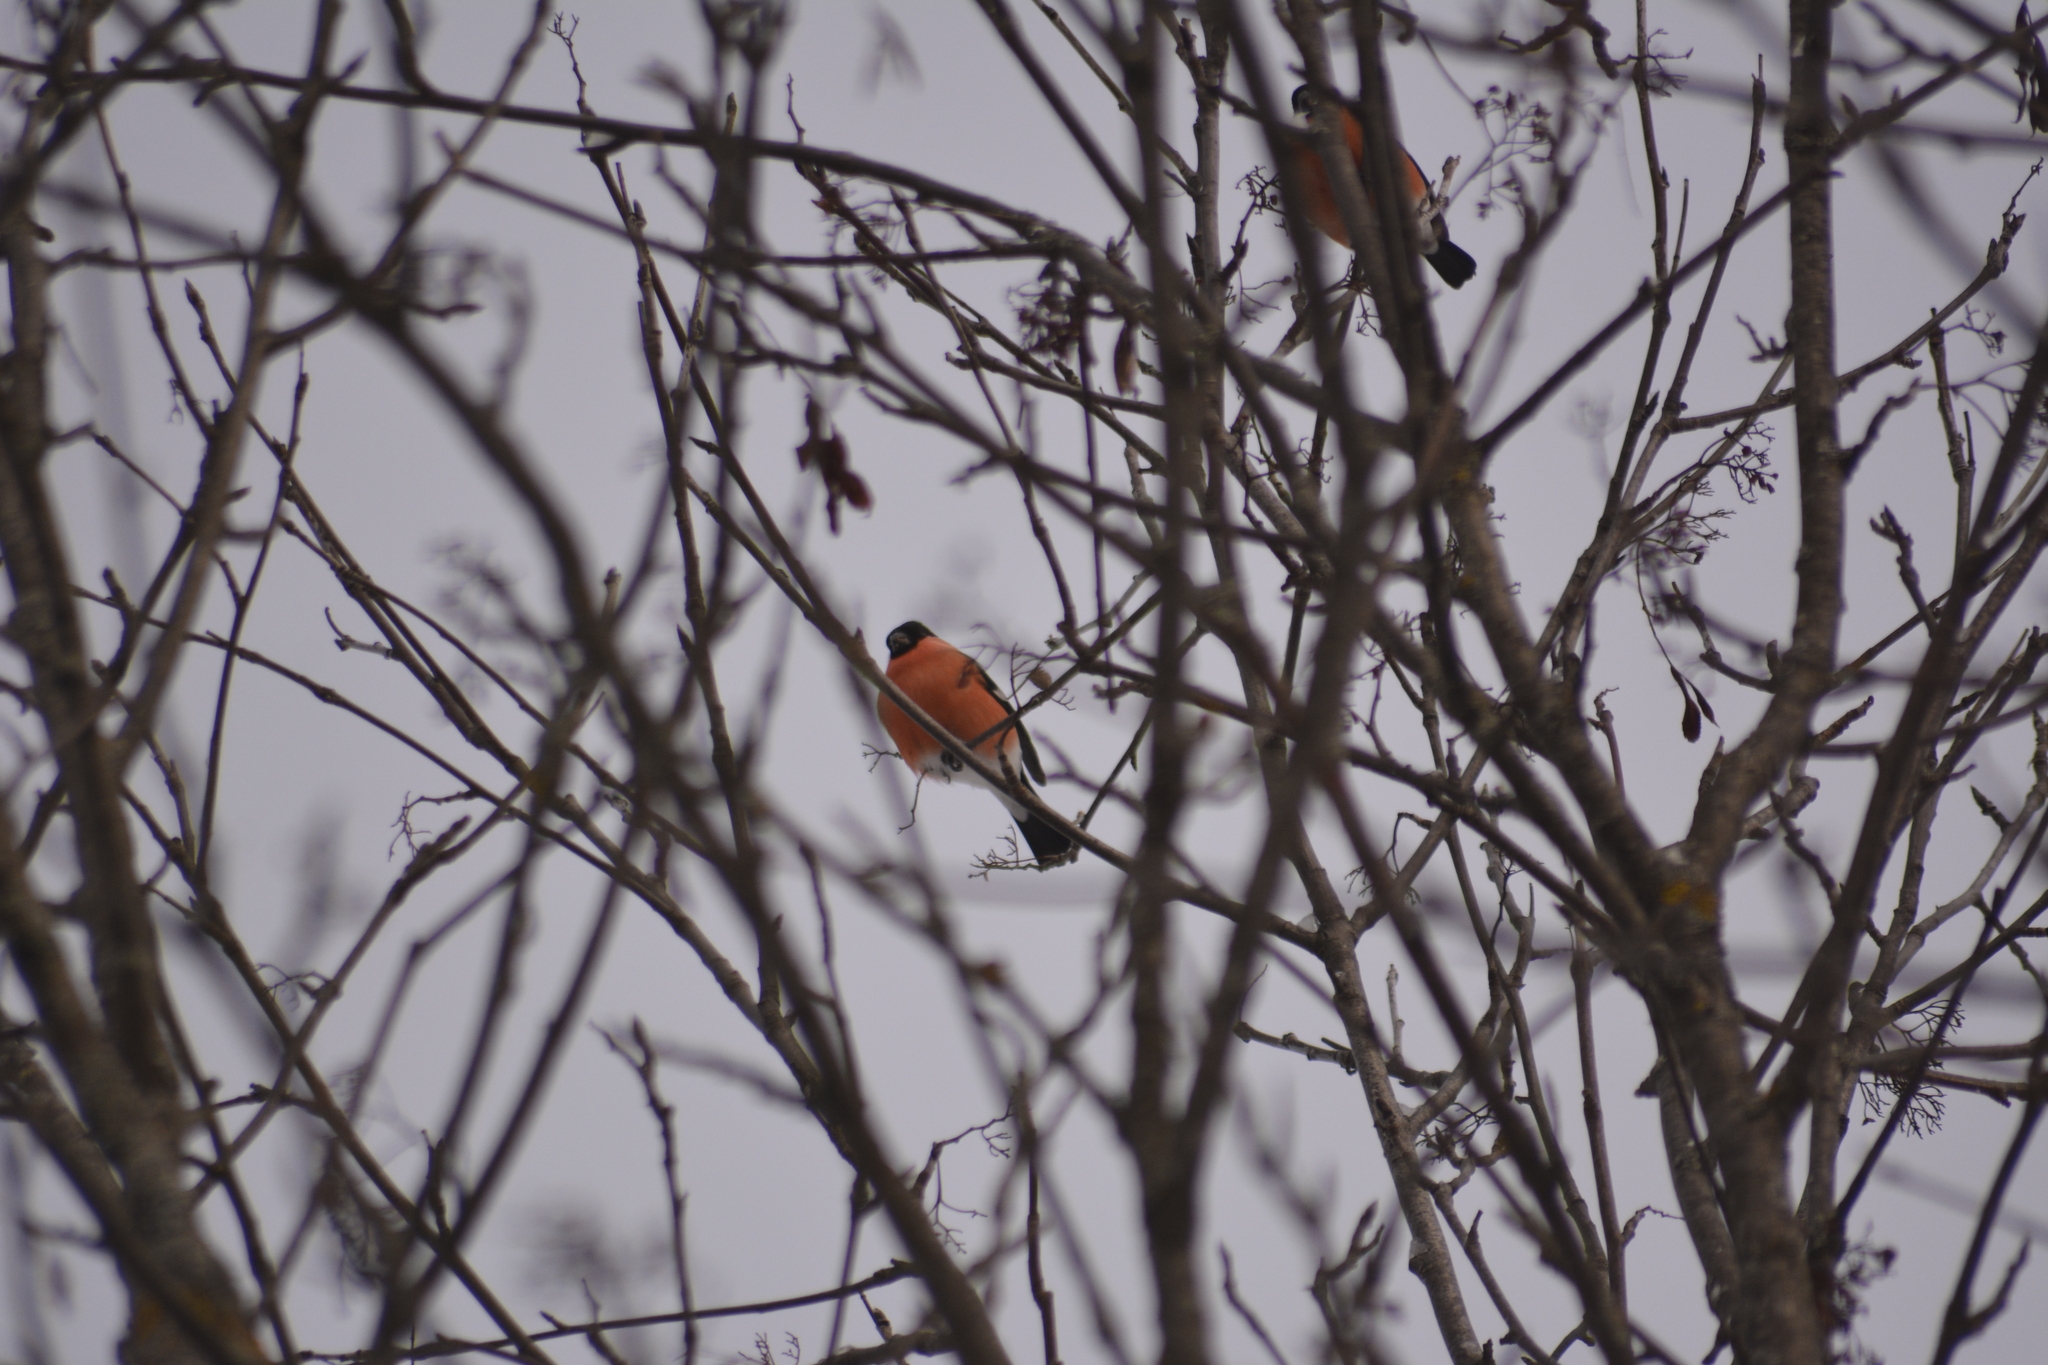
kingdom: Animalia
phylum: Chordata
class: Aves
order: Passeriformes
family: Fringillidae
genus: Pyrrhula
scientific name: Pyrrhula pyrrhula
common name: Eurasian bullfinch
